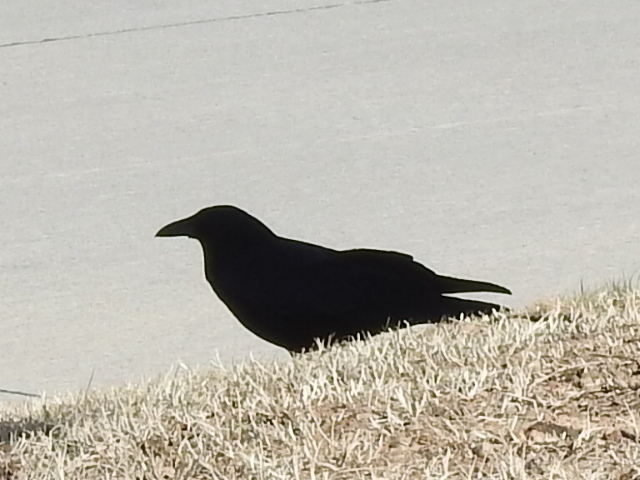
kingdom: Animalia
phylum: Chordata
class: Aves
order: Passeriformes
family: Corvidae
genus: Corvus
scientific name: Corvus brachyrhynchos
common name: American crow
